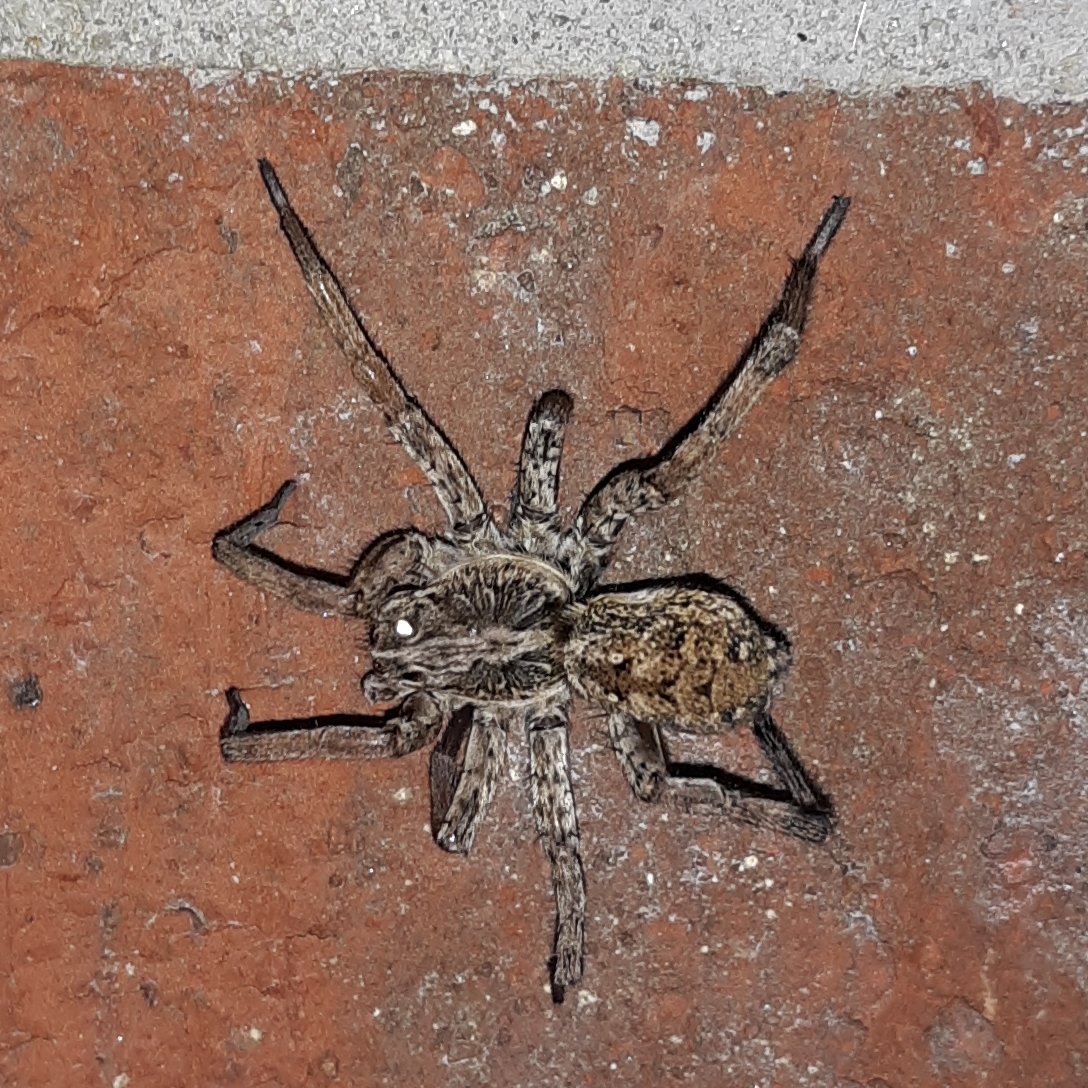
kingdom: Animalia
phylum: Arthropoda
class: Arachnida
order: Araneae
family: Lycosidae
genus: Hogna
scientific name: Hogna antelucana
